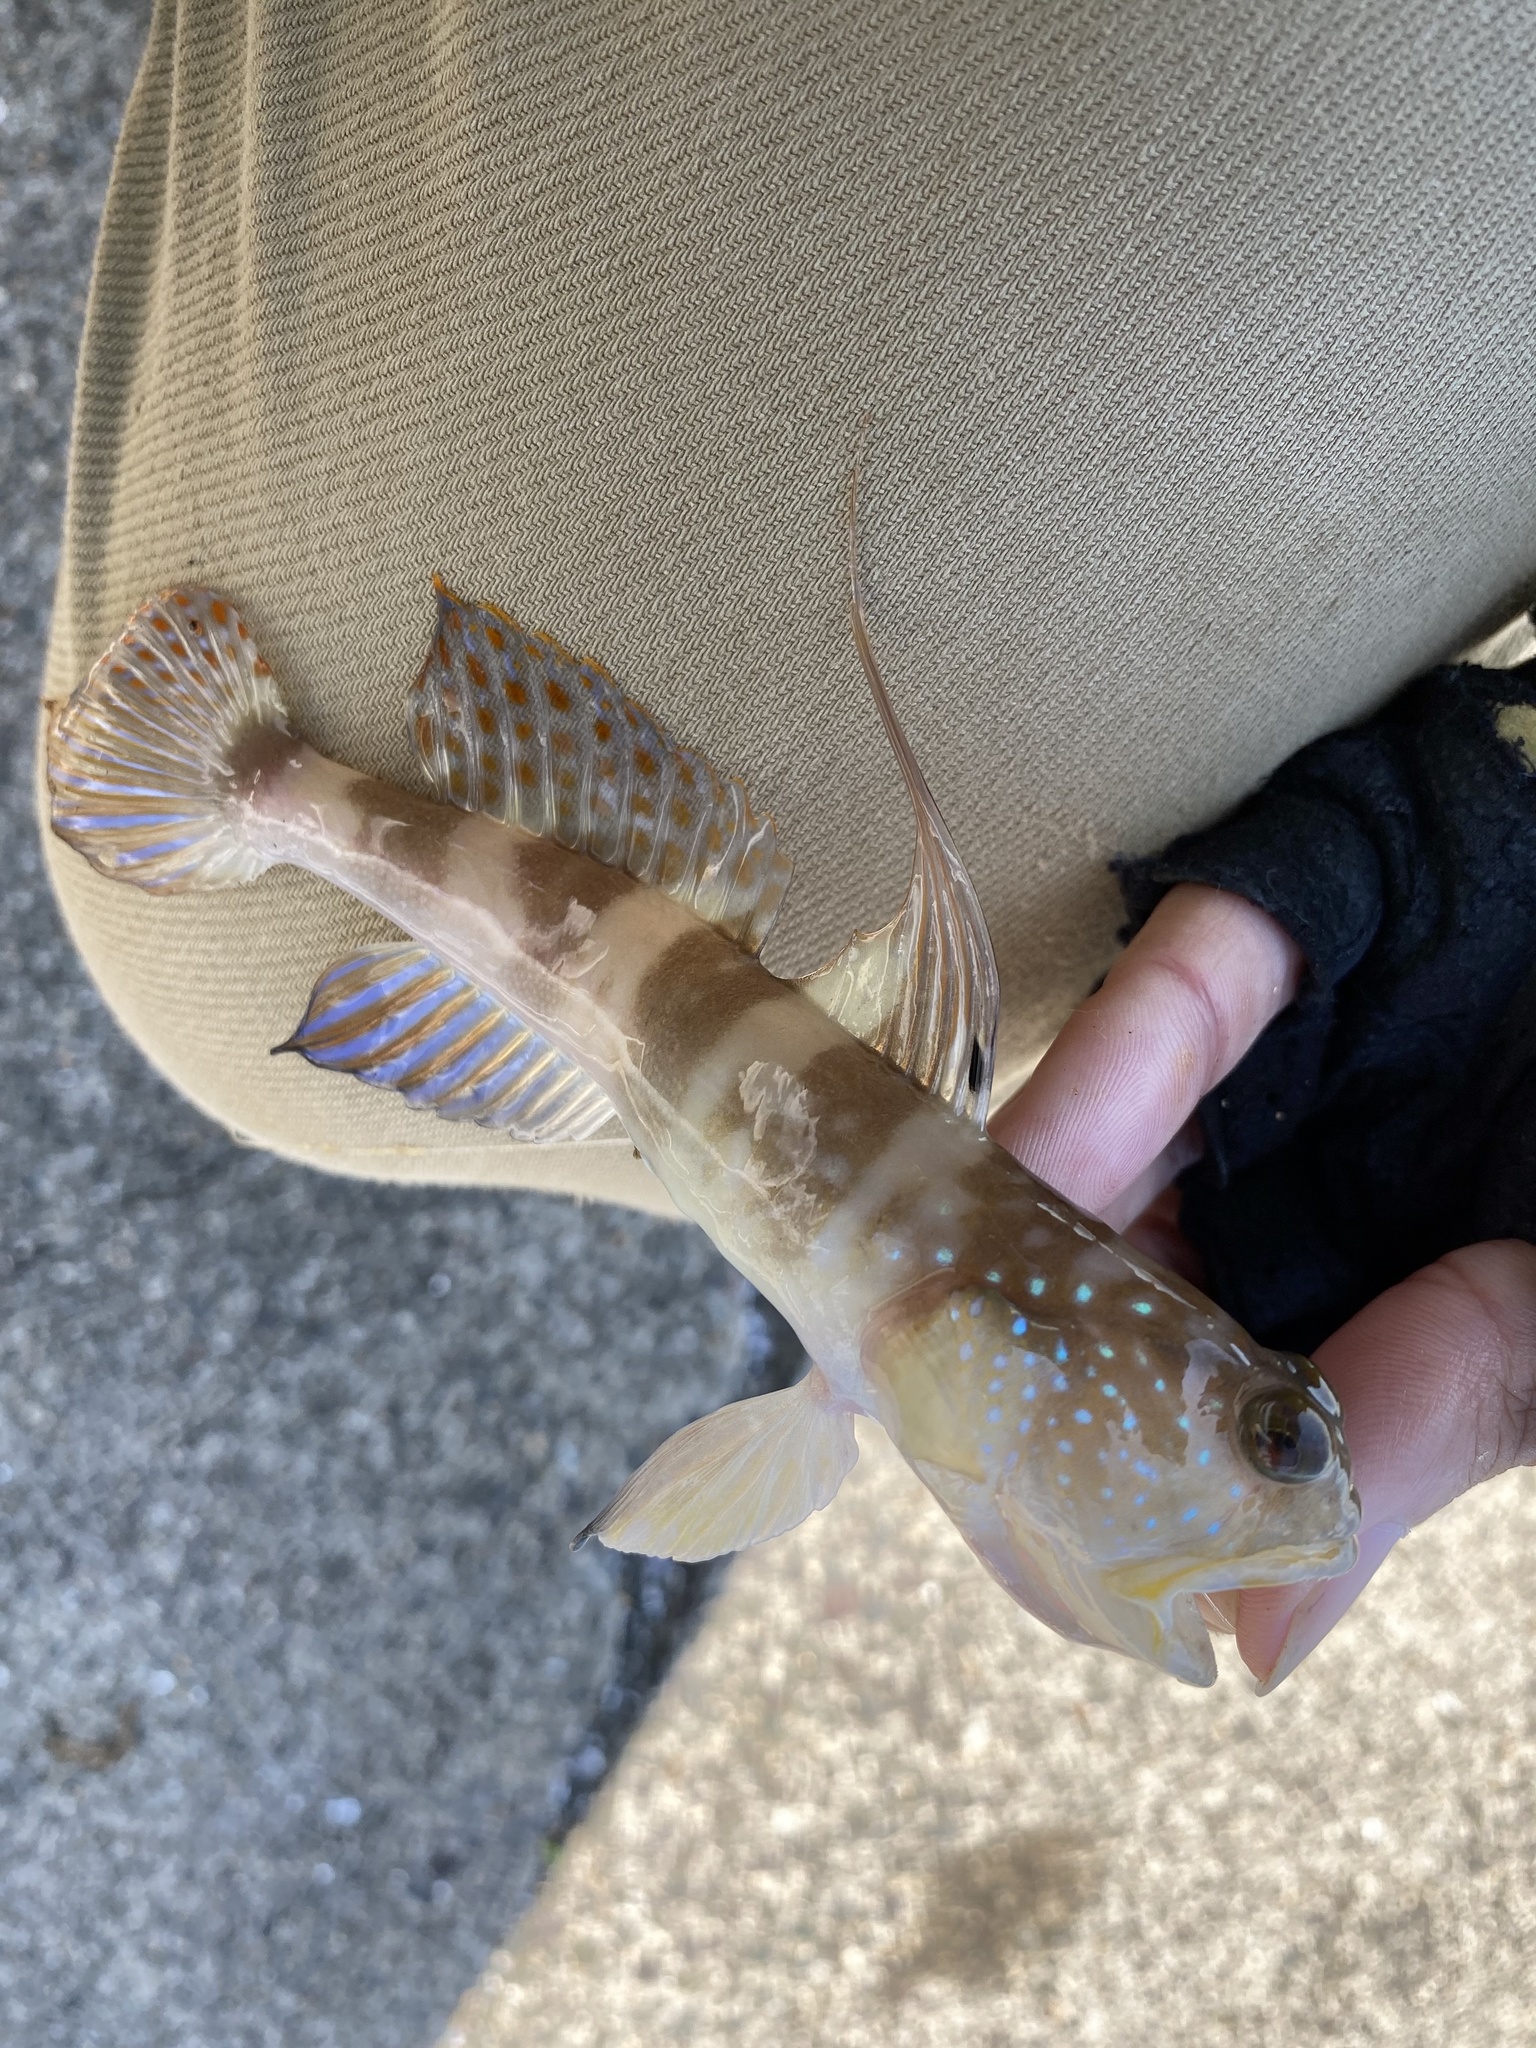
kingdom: Animalia
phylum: Chordata
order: Perciformes
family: Gobiidae
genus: Myersina
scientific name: Myersina filifer
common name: Thread goby
